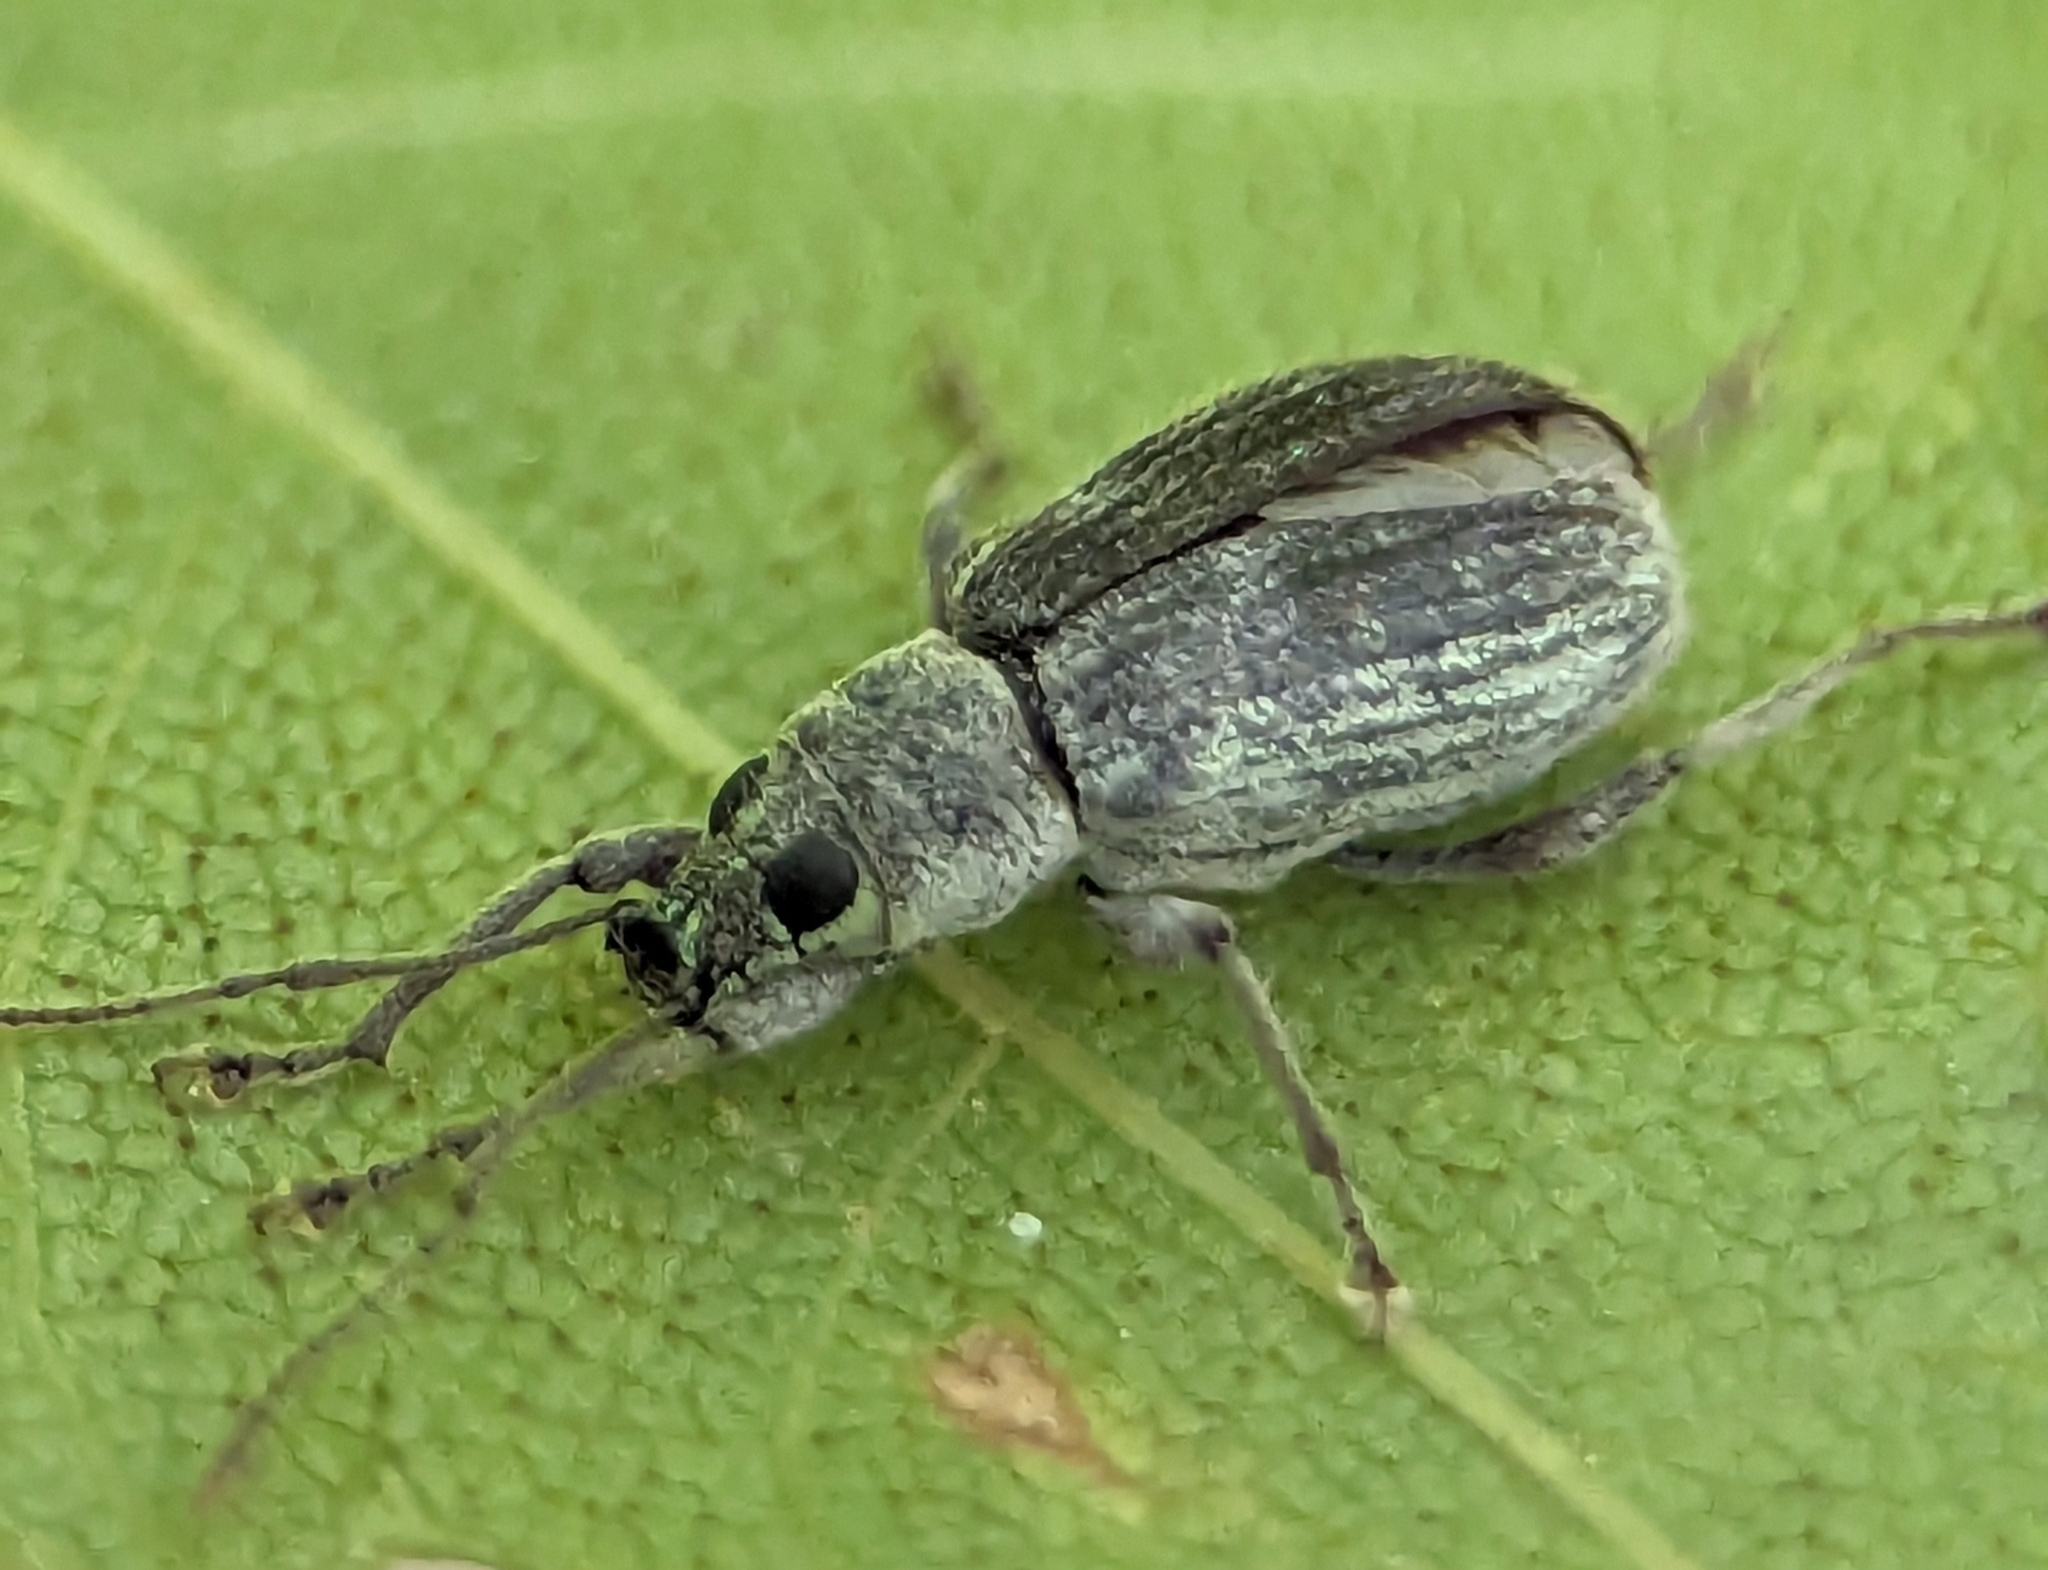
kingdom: Animalia
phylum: Arthropoda
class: Insecta
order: Coleoptera
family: Curculionidae
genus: Cyrtepistomus
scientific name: Cyrtepistomus castaneus
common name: Weevil
